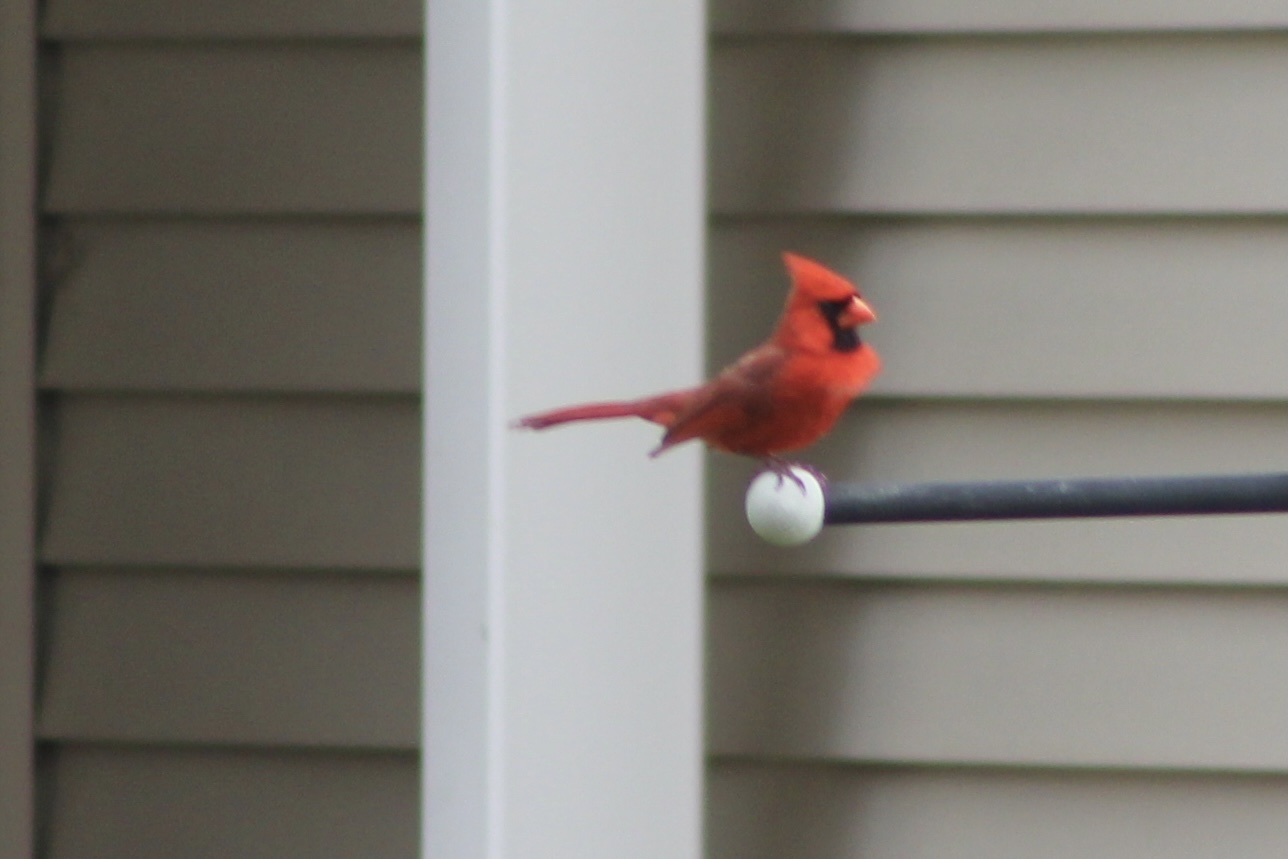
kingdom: Animalia
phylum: Chordata
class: Aves
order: Passeriformes
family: Cardinalidae
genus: Cardinalis
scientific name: Cardinalis cardinalis
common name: Northern cardinal
